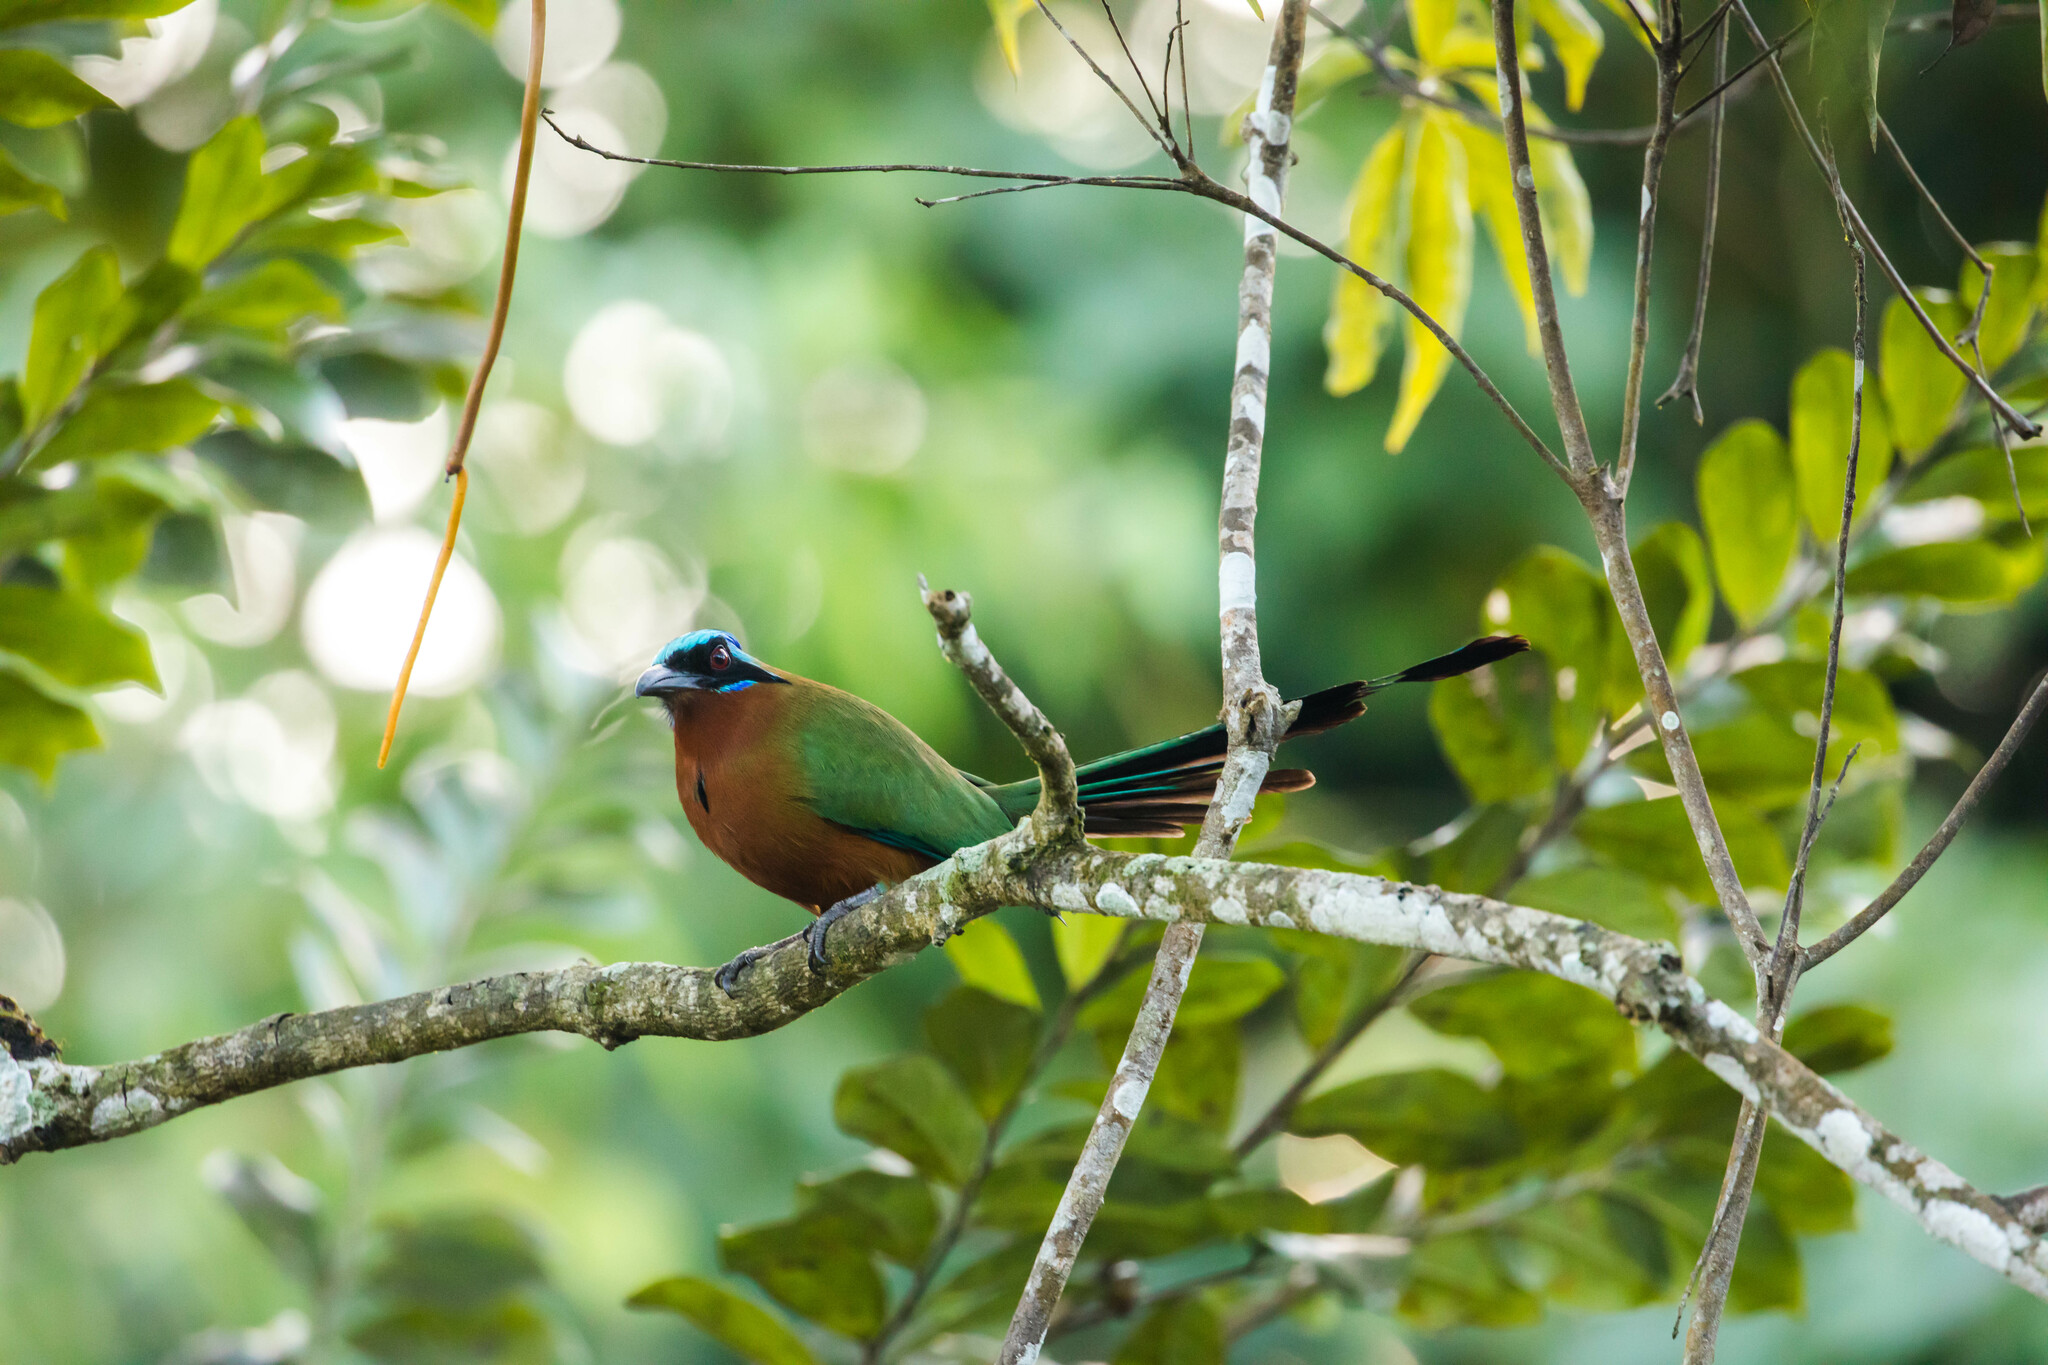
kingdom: Animalia
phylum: Chordata
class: Aves
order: Coraciiformes
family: Momotidae
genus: Momotus
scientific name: Momotus bahamensis
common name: Trinidad motmot
